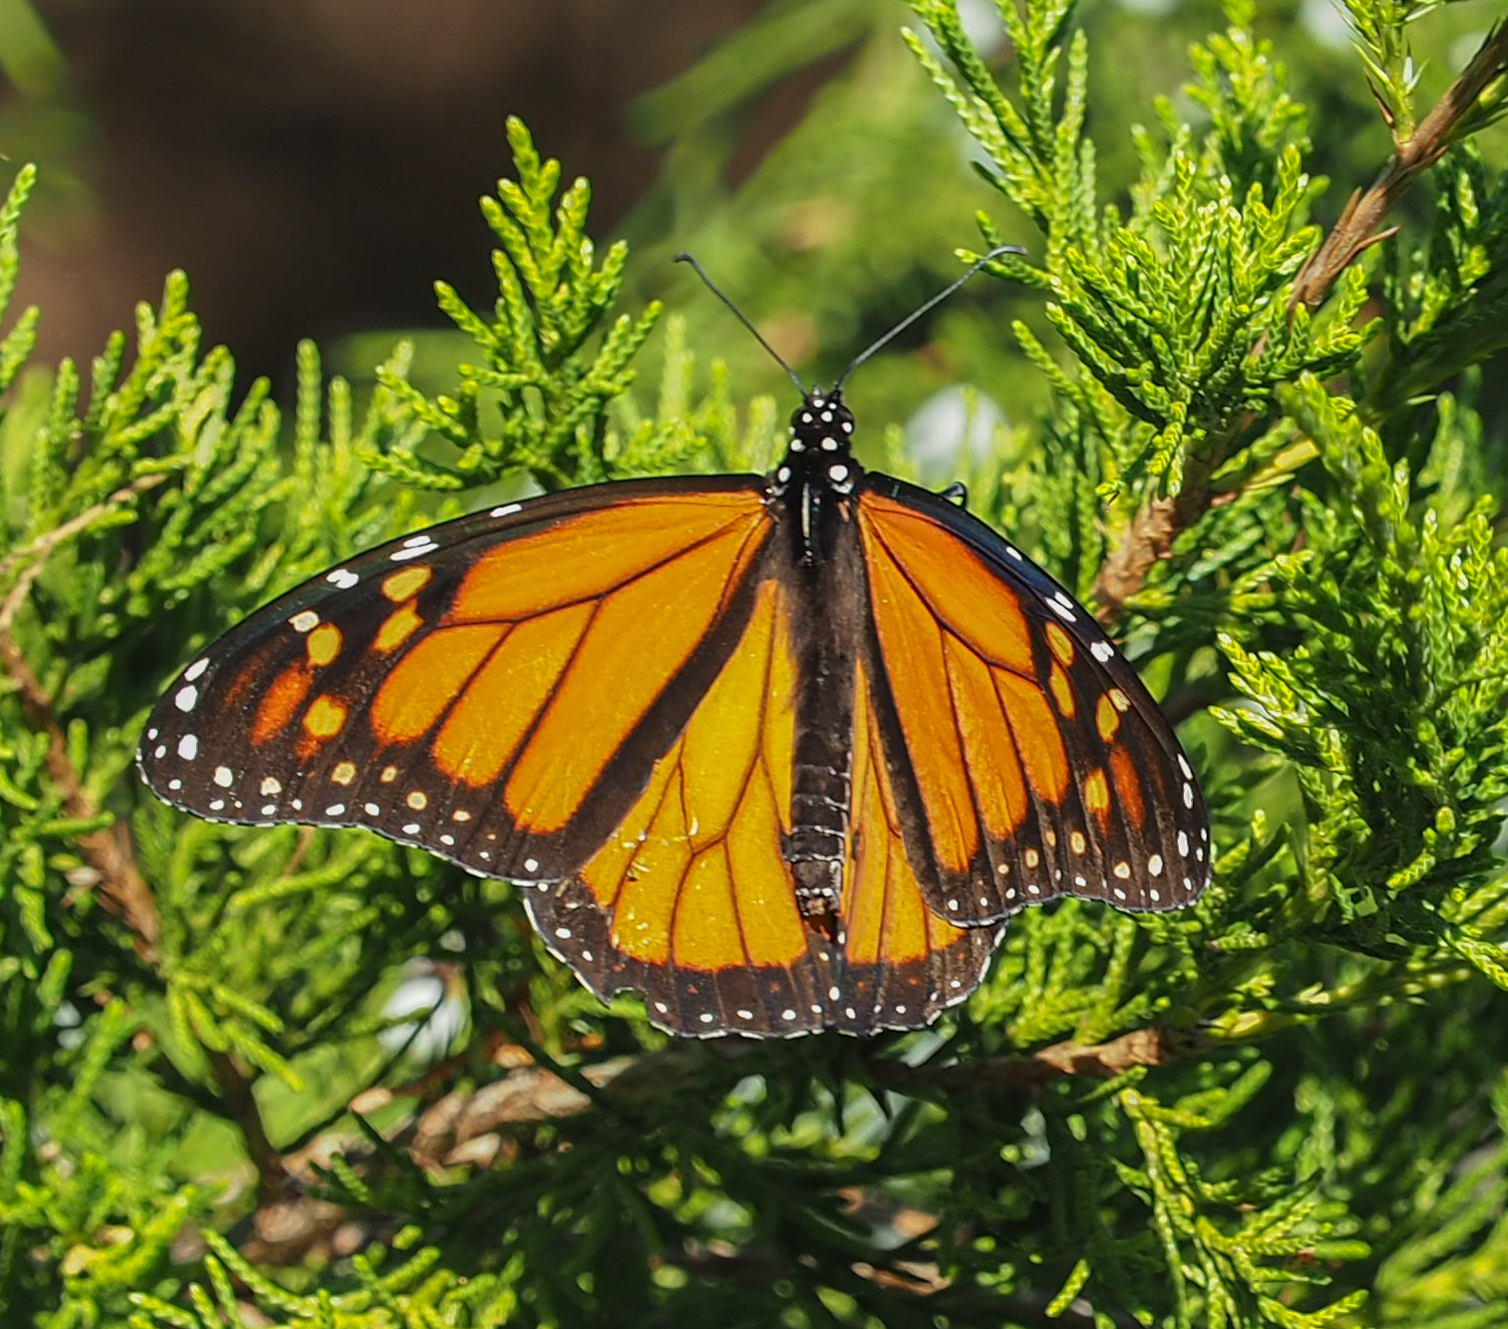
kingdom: Animalia
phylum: Arthropoda
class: Insecta
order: Lepidoptera
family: Nymphalidae
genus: Danaus
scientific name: Danaus plexippus
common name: Monarch
